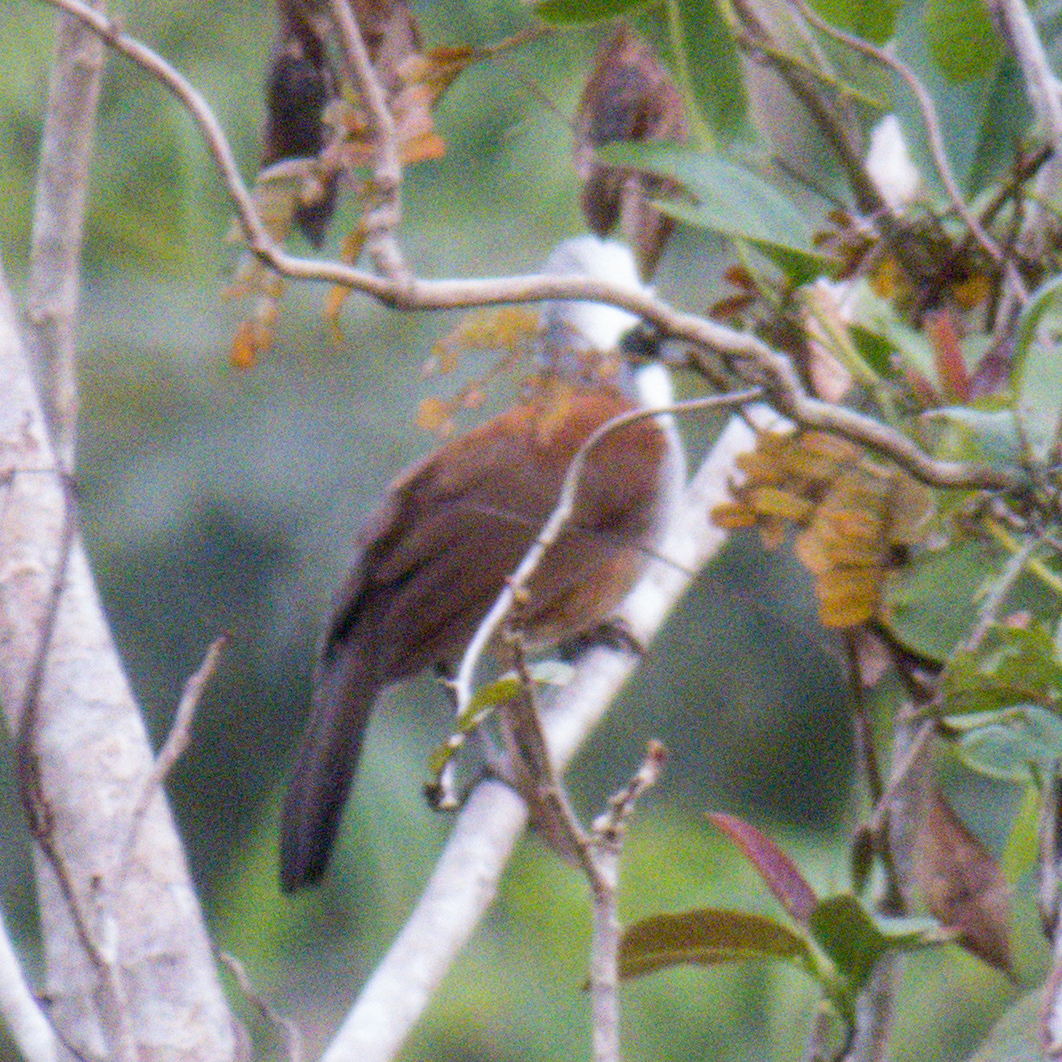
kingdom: Animalia
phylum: Chordata
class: Aves
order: Passeriformes
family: Leiothrichidae
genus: Garrulax
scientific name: Garrulax leucolophus
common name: White-crested laughingthrush
